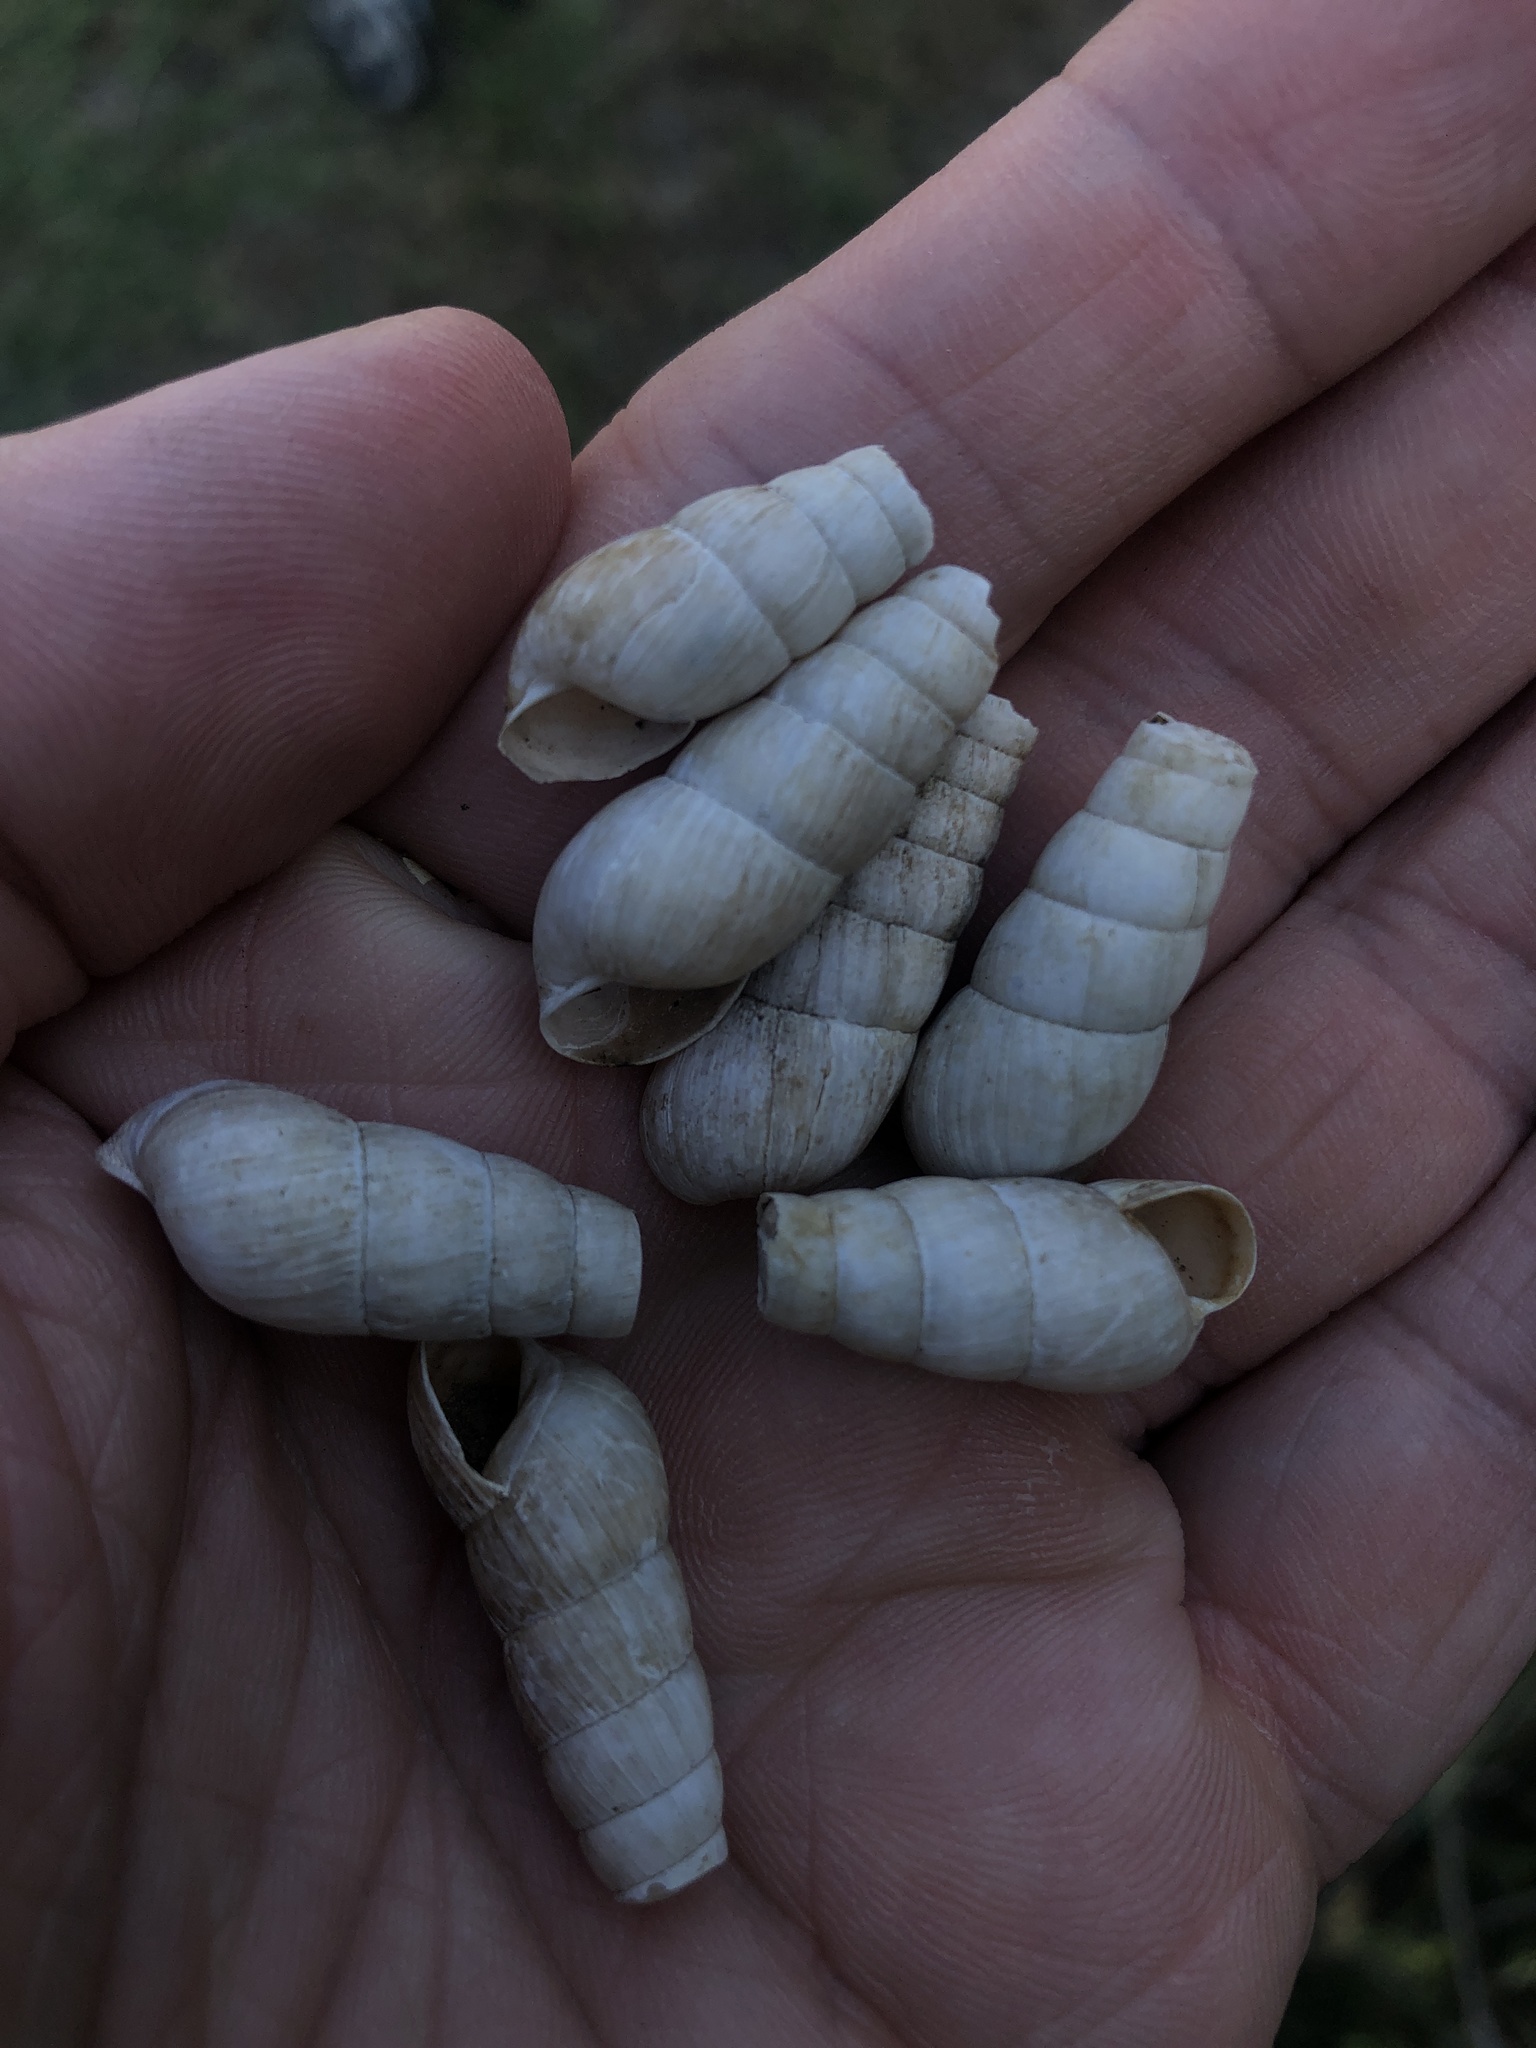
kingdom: Animalia
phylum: Mollusca
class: Gastropoda
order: Stylommatophora
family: Achatinidae
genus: Rumina
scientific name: Rumina decollata
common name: Decollate snail
